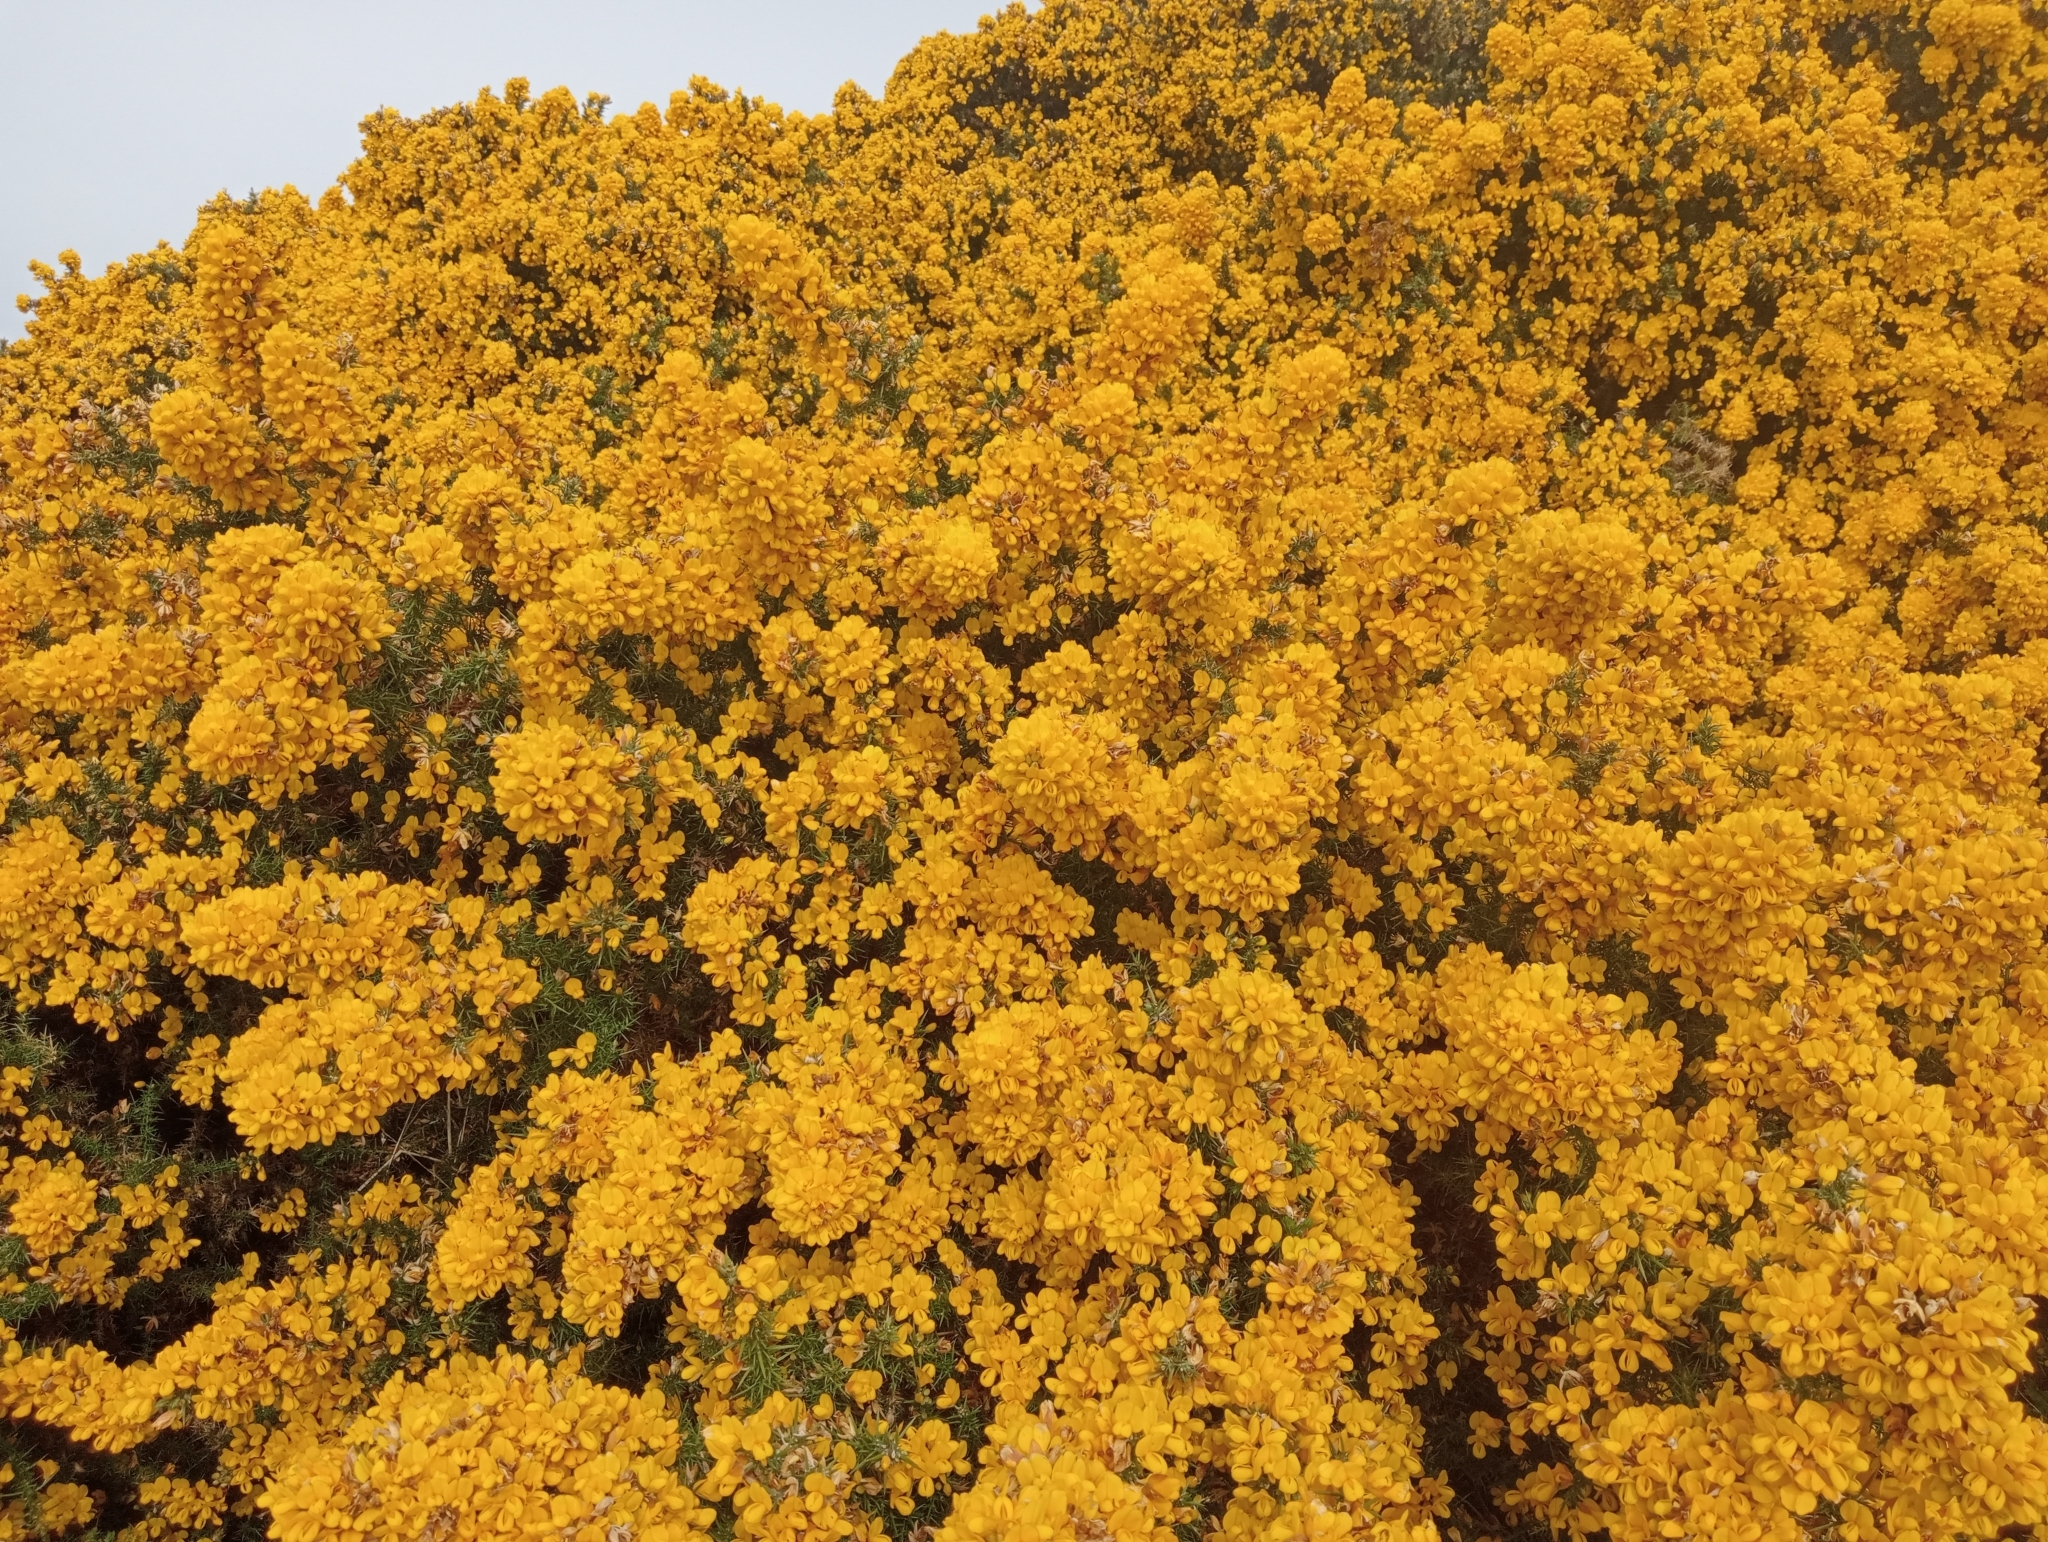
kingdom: Plantae
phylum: Tracheophyta
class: Magnoliopsida
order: Fabales
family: Fabaceae
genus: Ulex
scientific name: Ulex europaeus
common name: Common gorse
